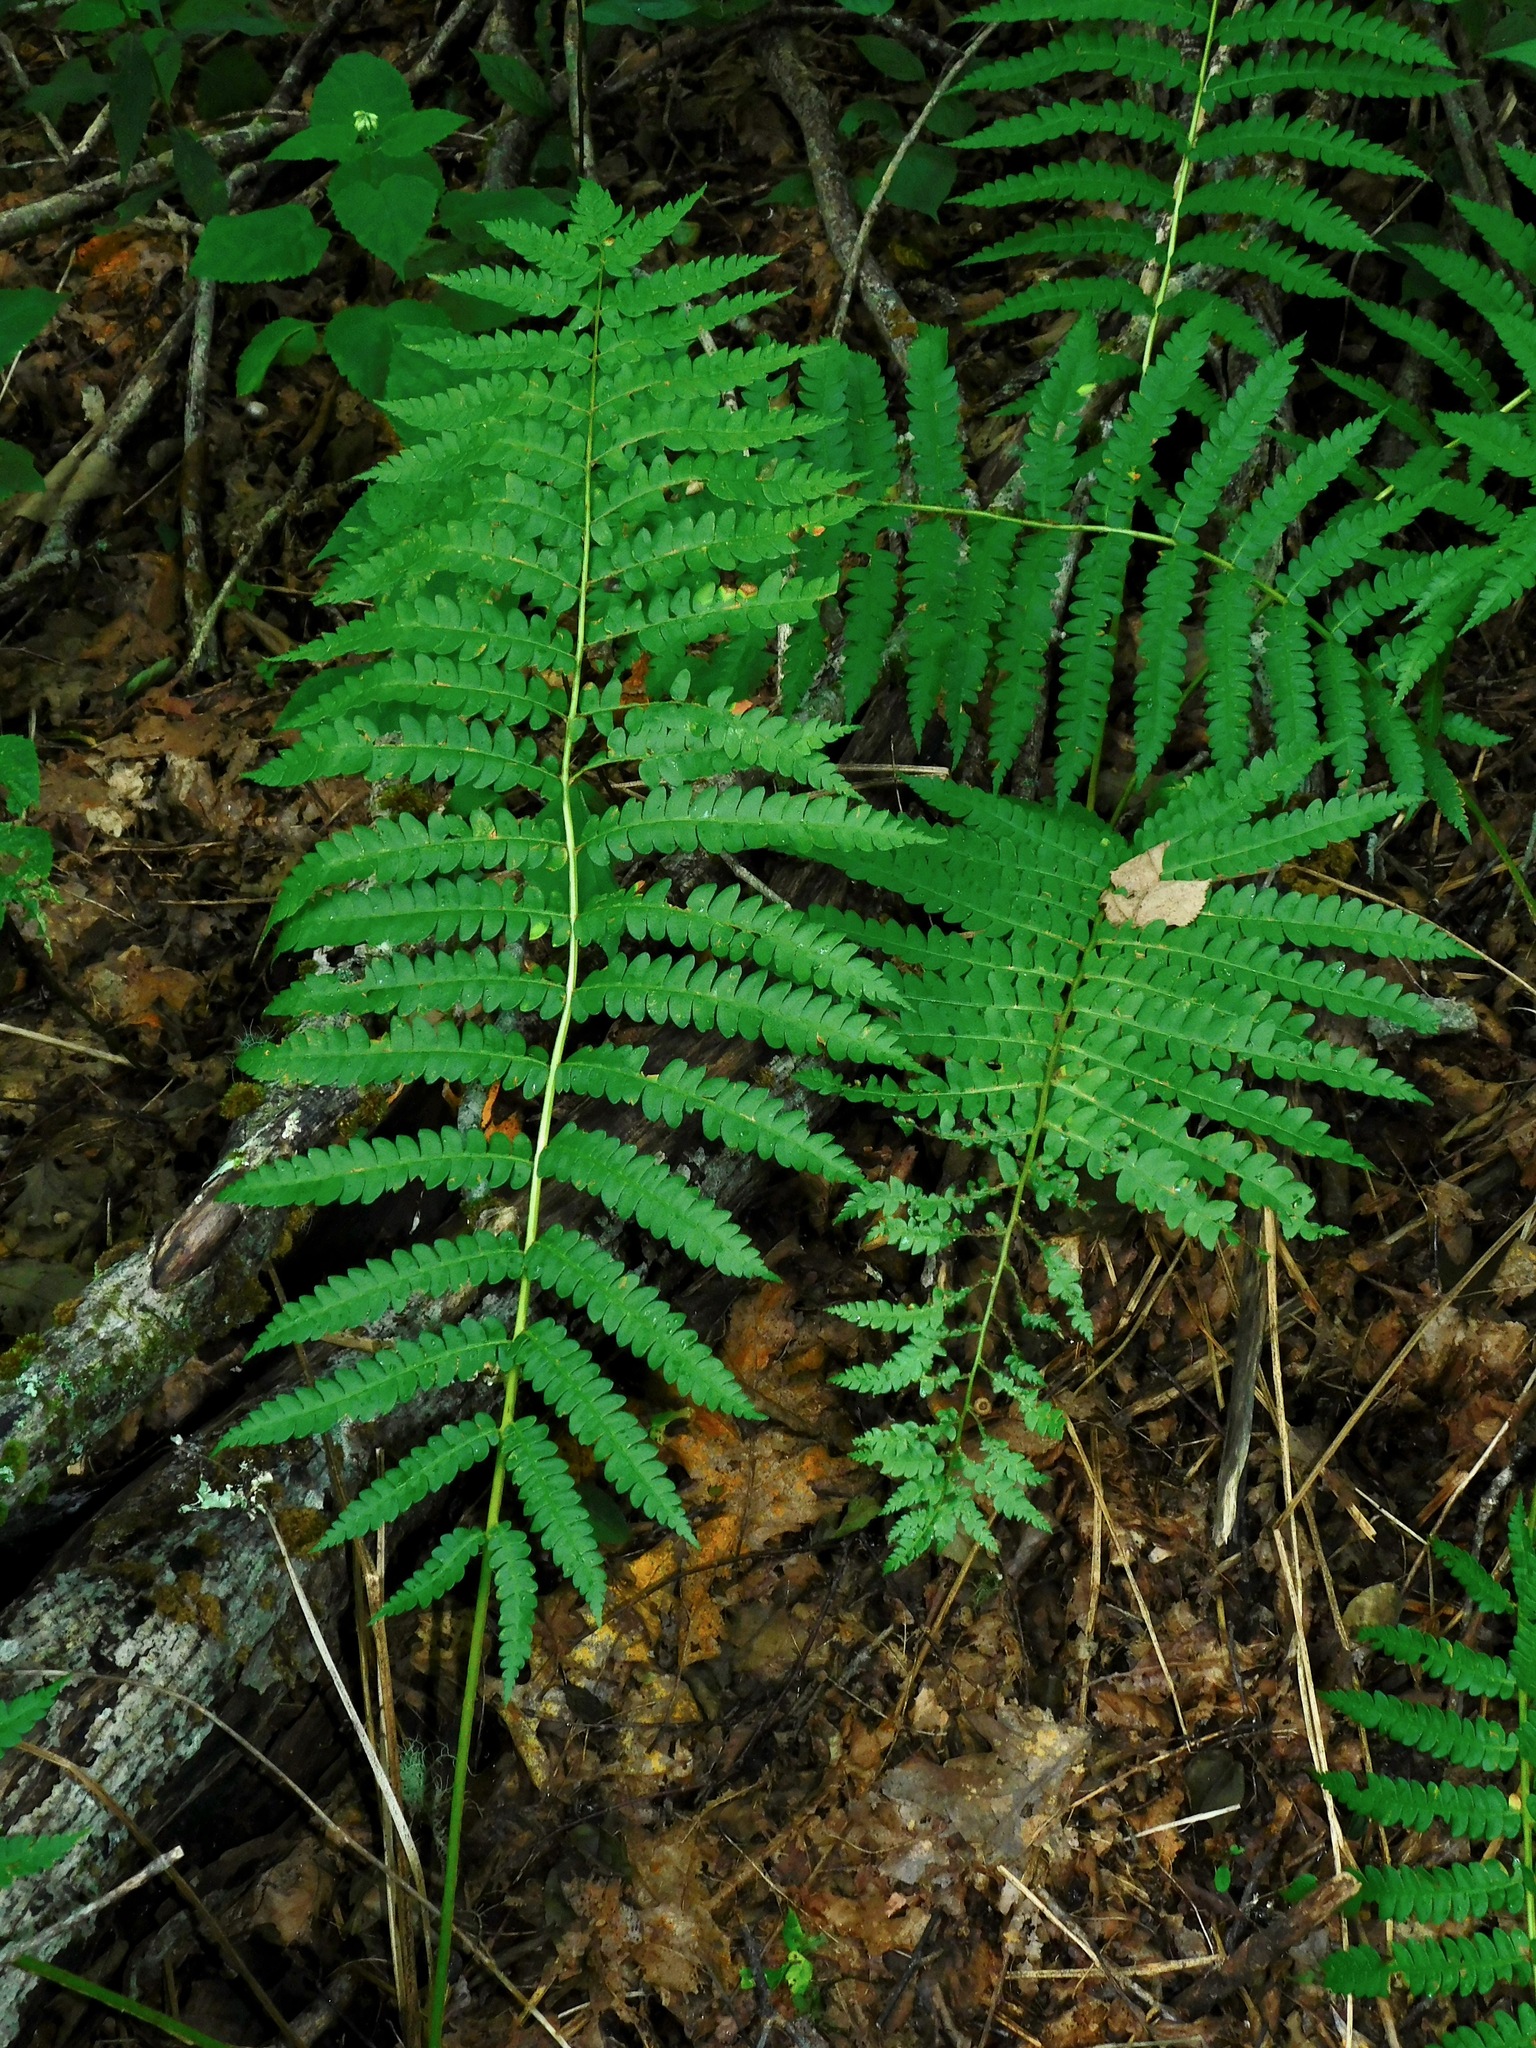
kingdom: Plantae
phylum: Tracheophyta
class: Polypodiopsida
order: Osmundales
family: Osmundaceae
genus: Osmundastrum
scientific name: Osmundastrum cinnamomeum
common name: Cinnamon fern
